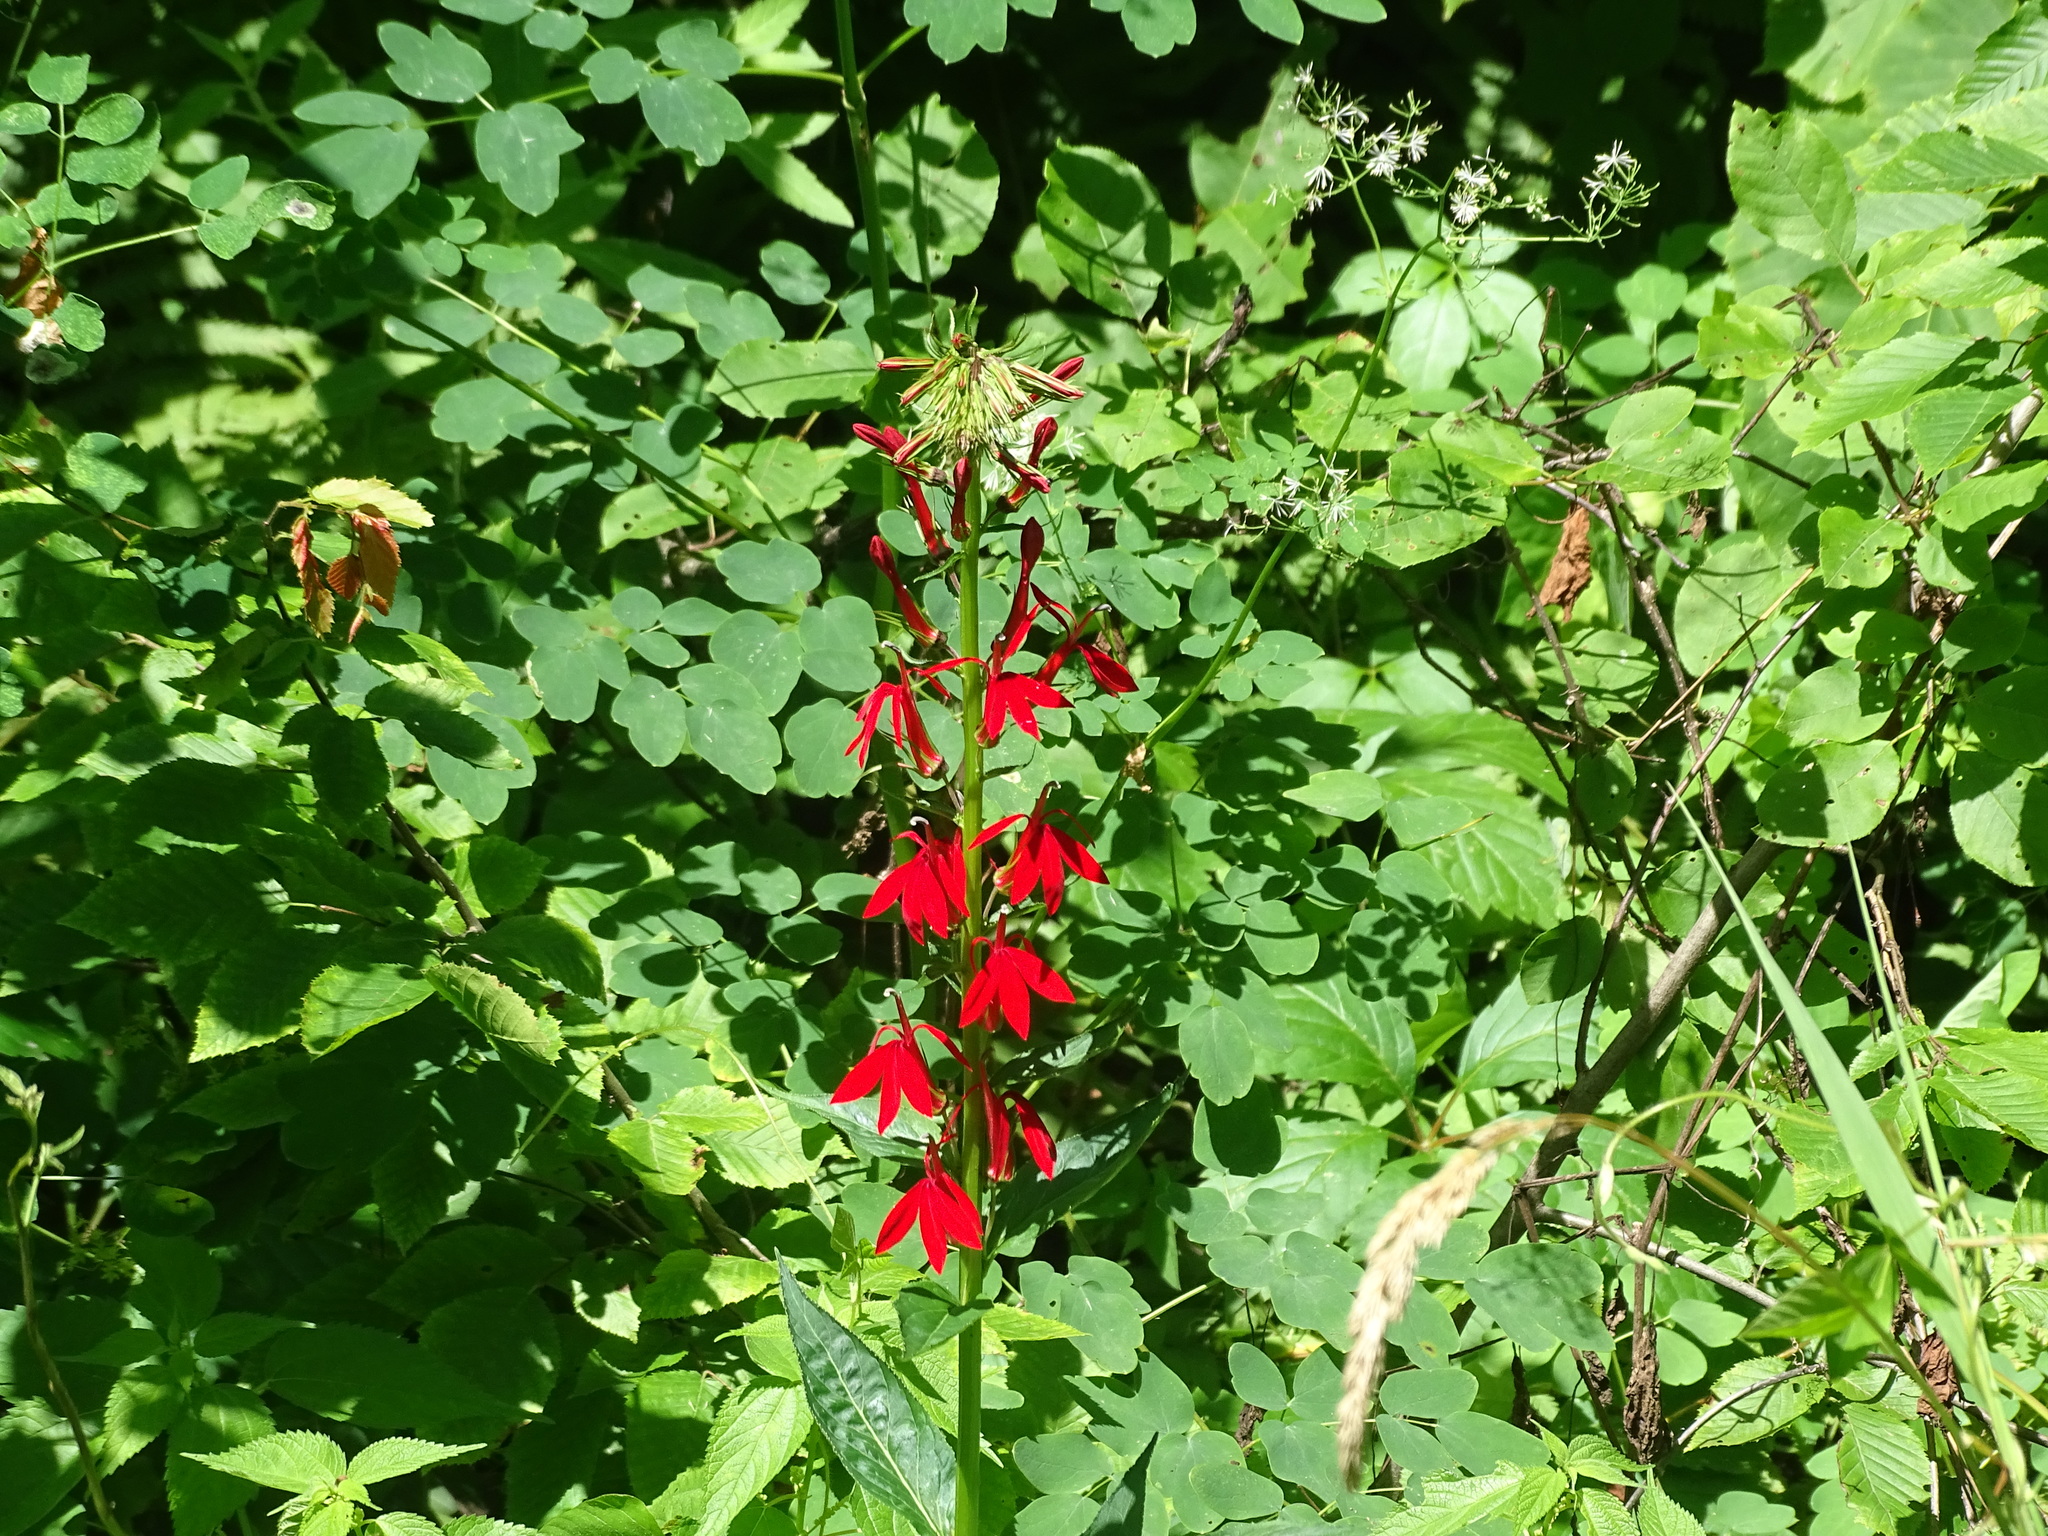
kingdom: Plantae
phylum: Tracheophyta
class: Magnoliopsida
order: Asterales
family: Campanulaceae
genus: Lobelia
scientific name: Lobelia cardinalis
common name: Cardinal flower
